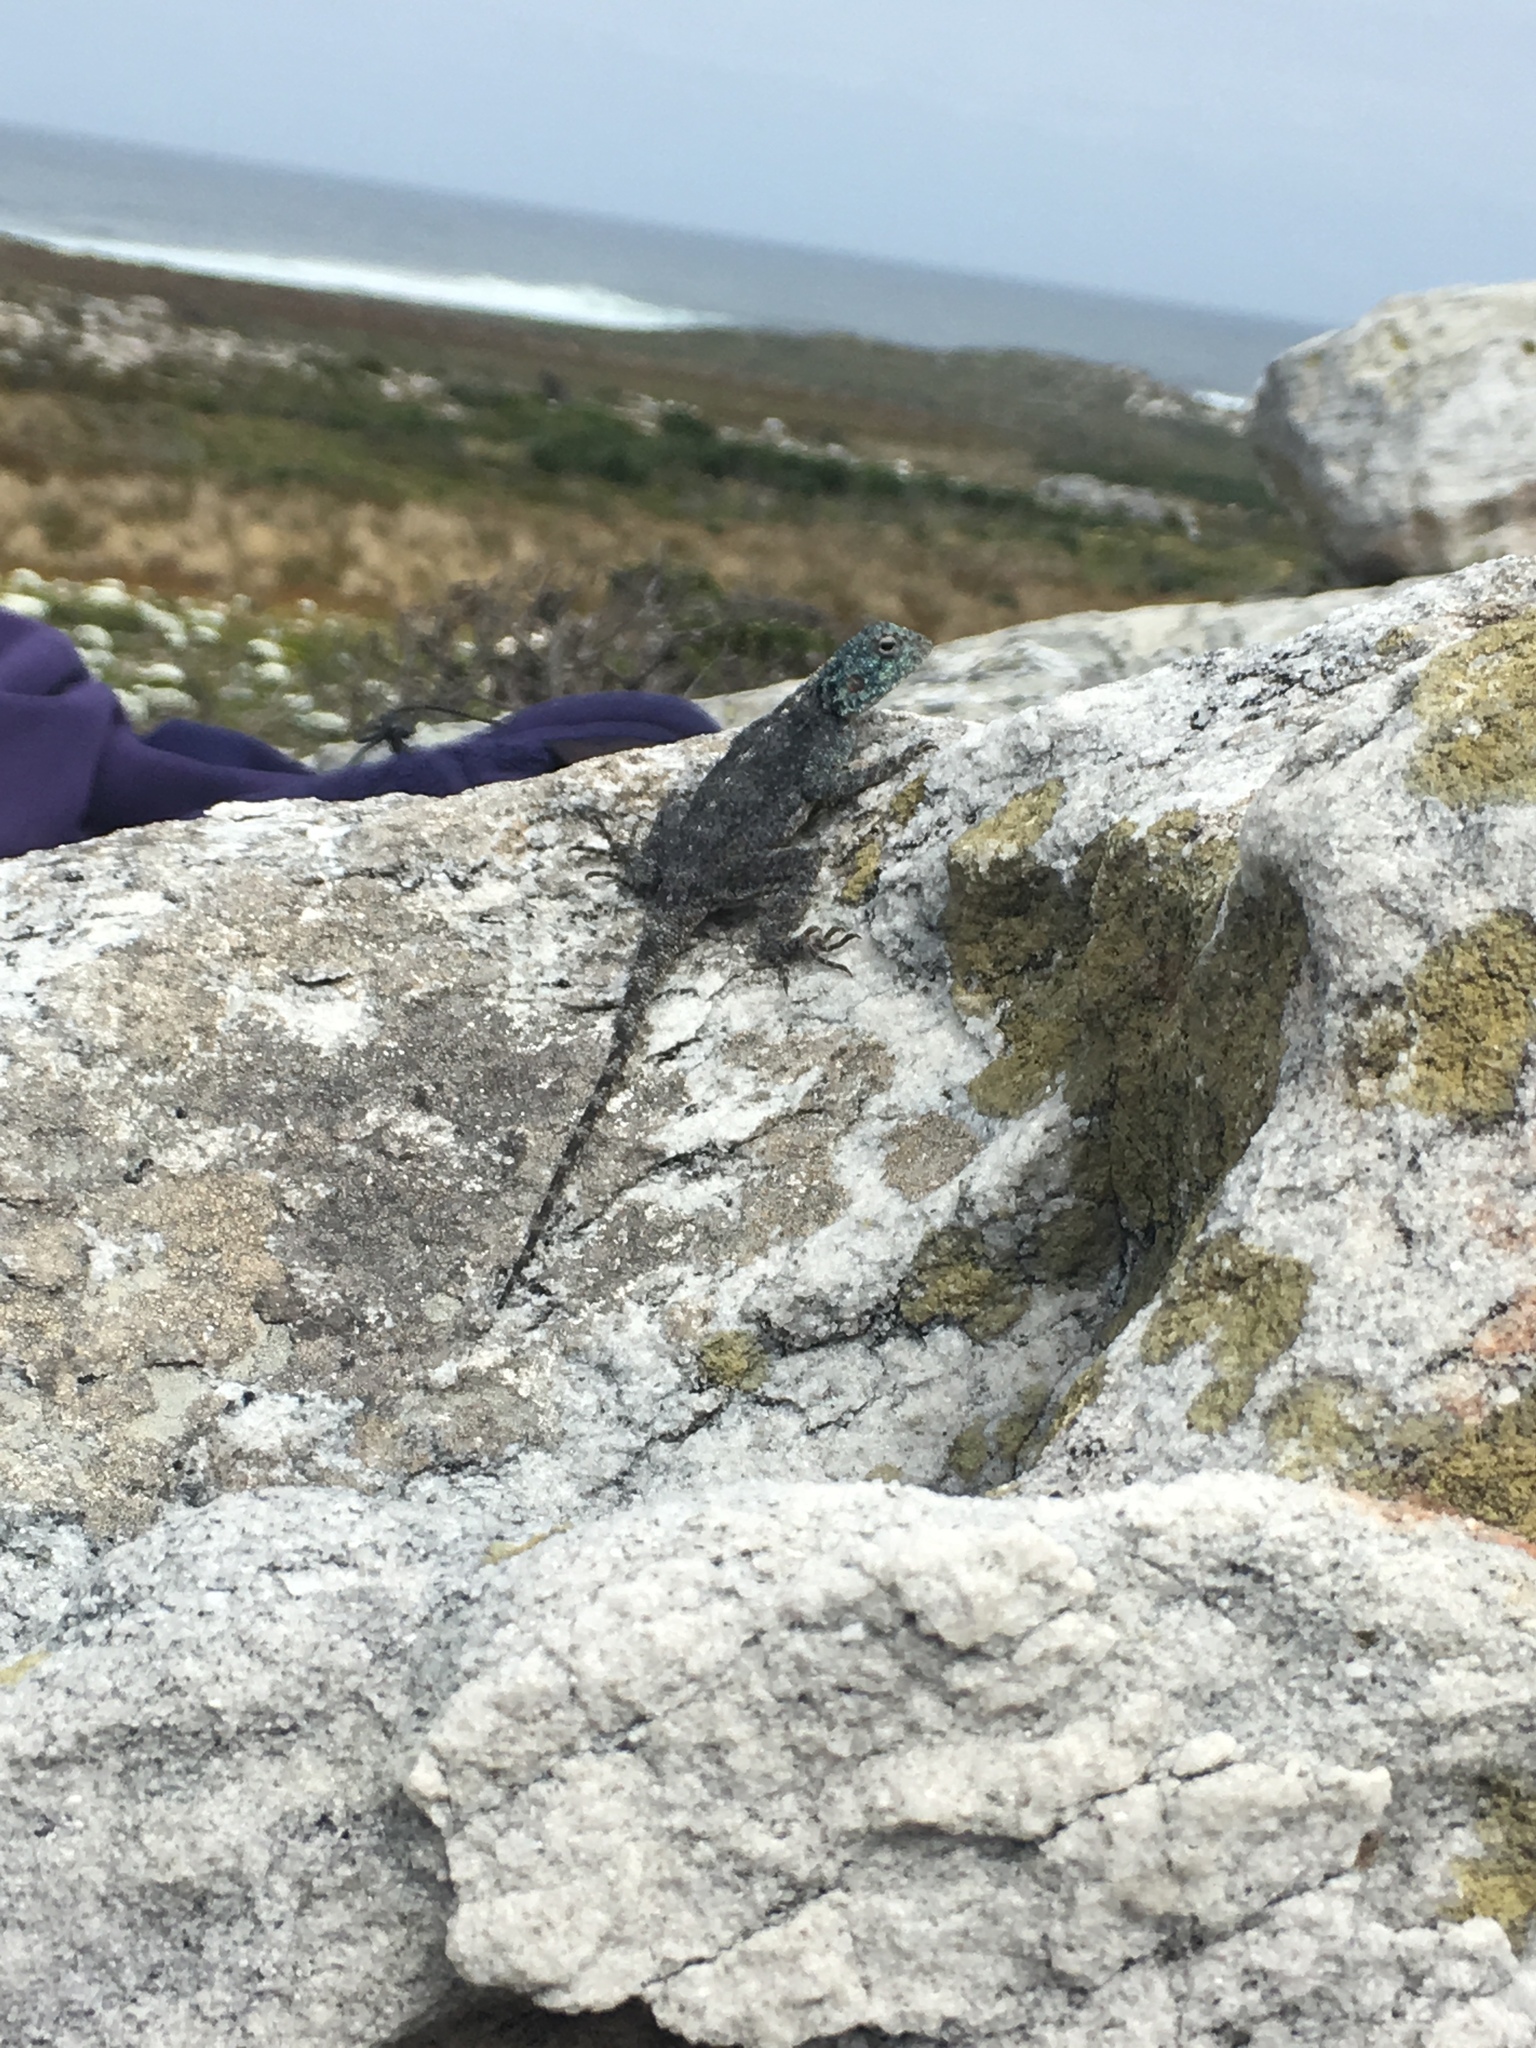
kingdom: Animalia
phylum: Chordata
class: Squamata
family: Agamidae
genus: Agama
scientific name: Agama atra
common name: Southern african rock agama
